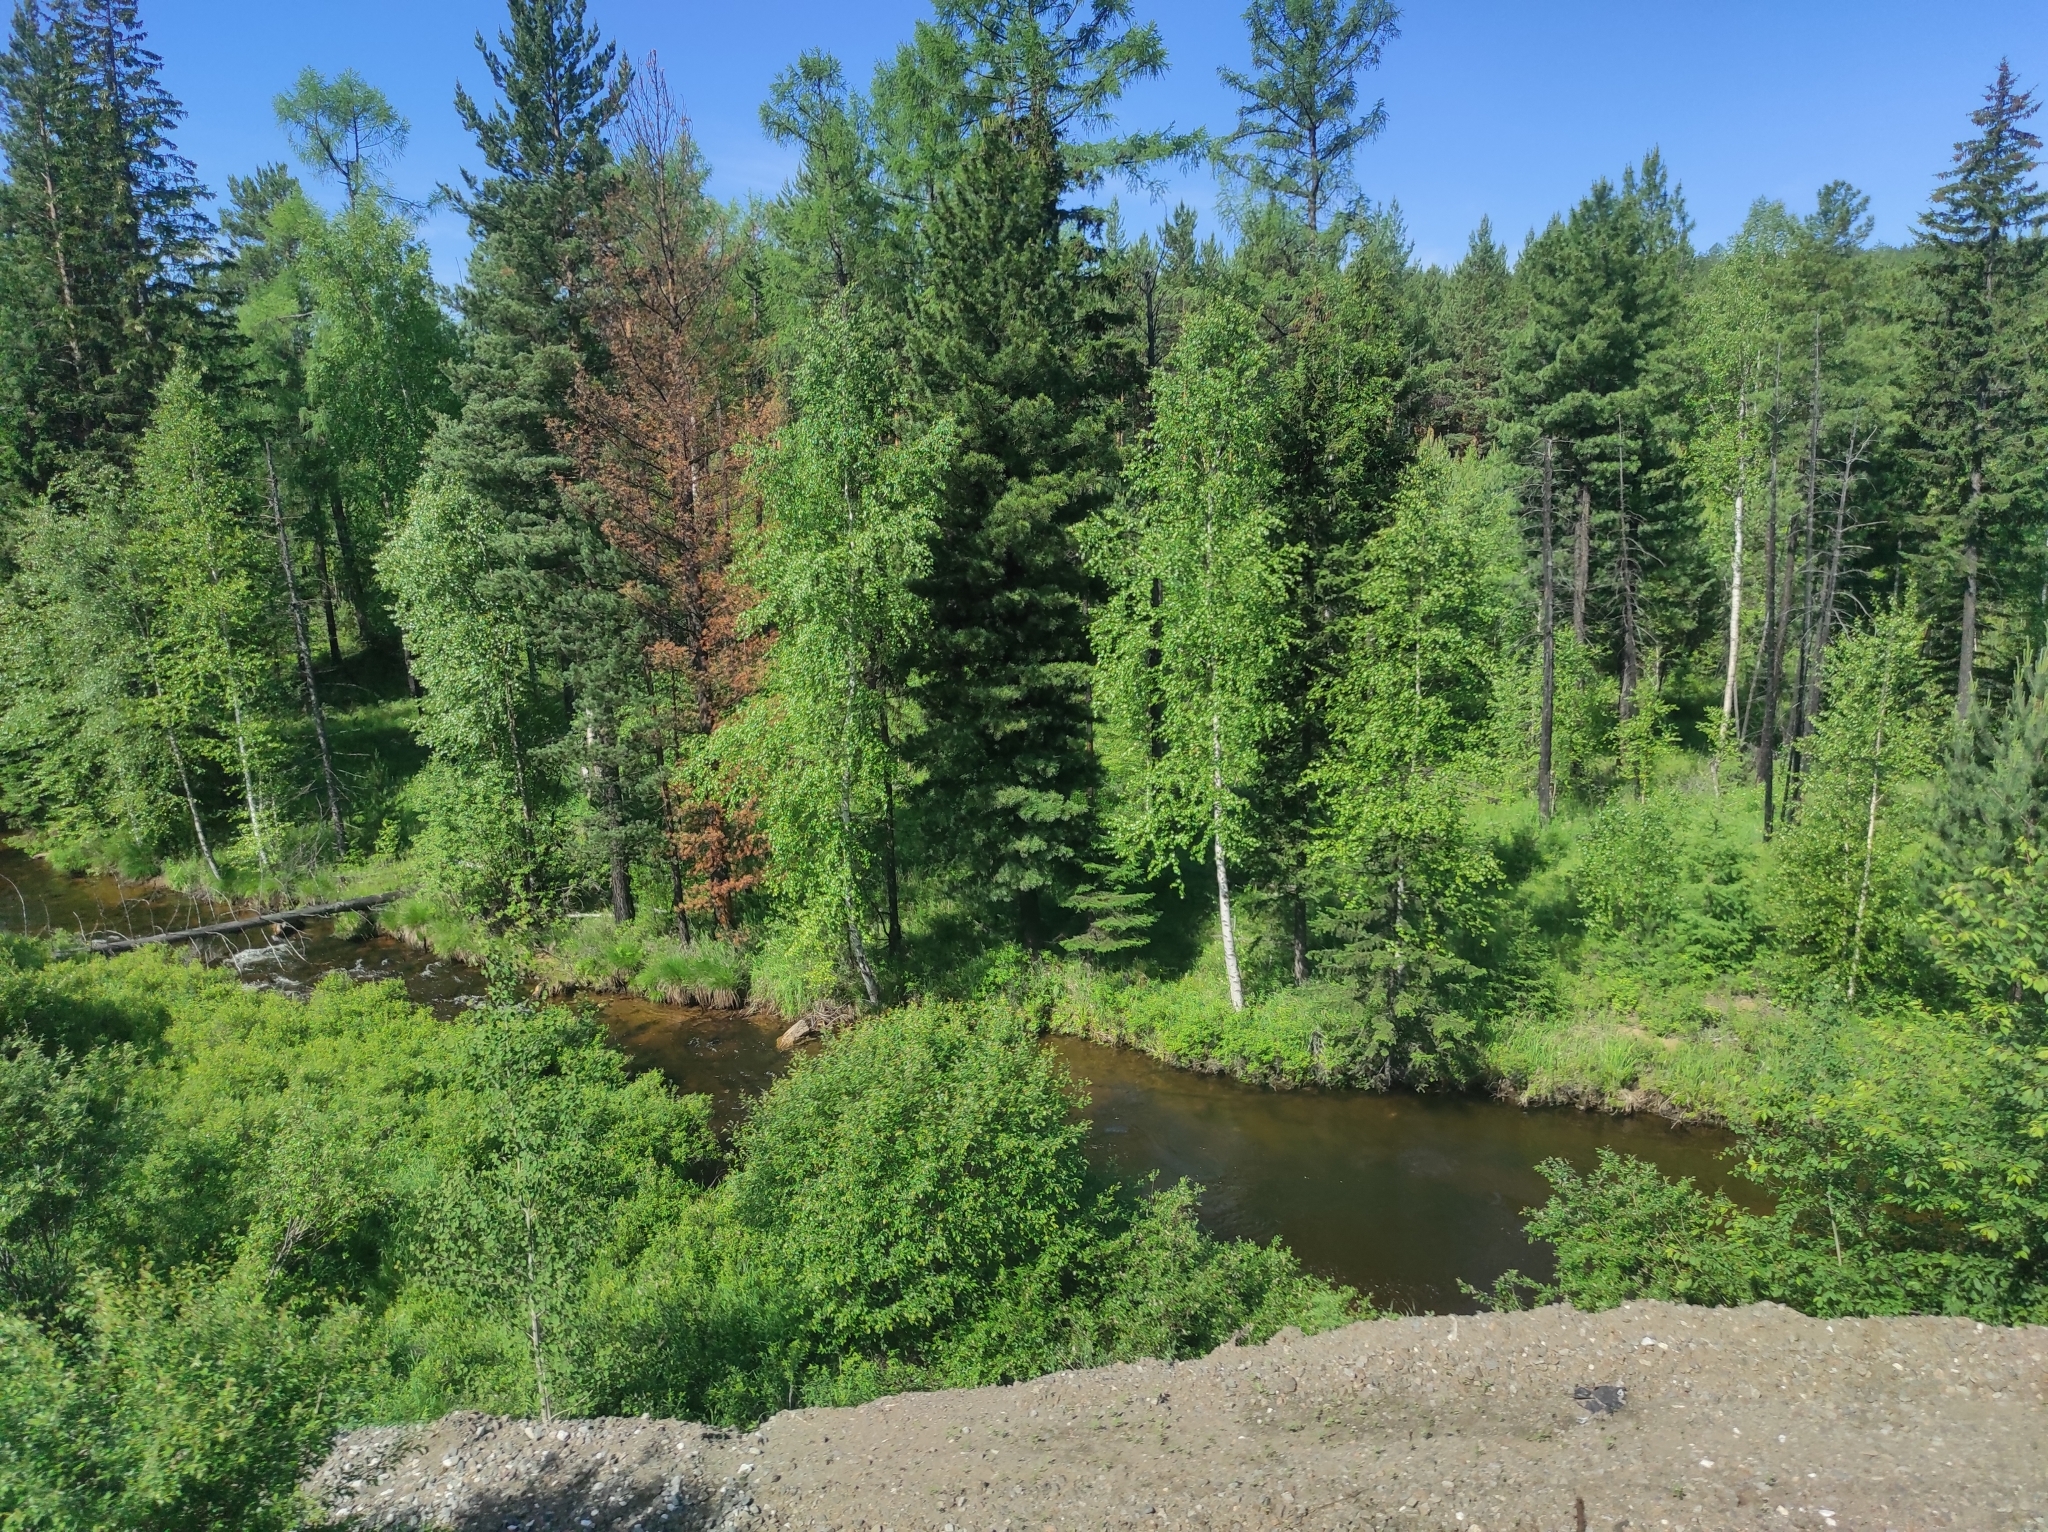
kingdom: Plantae
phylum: Tracheophyta
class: Pinopsida
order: Pinales
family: Pinaceae
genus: Pinus
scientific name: Pinus sibirica
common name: Siberian pine
